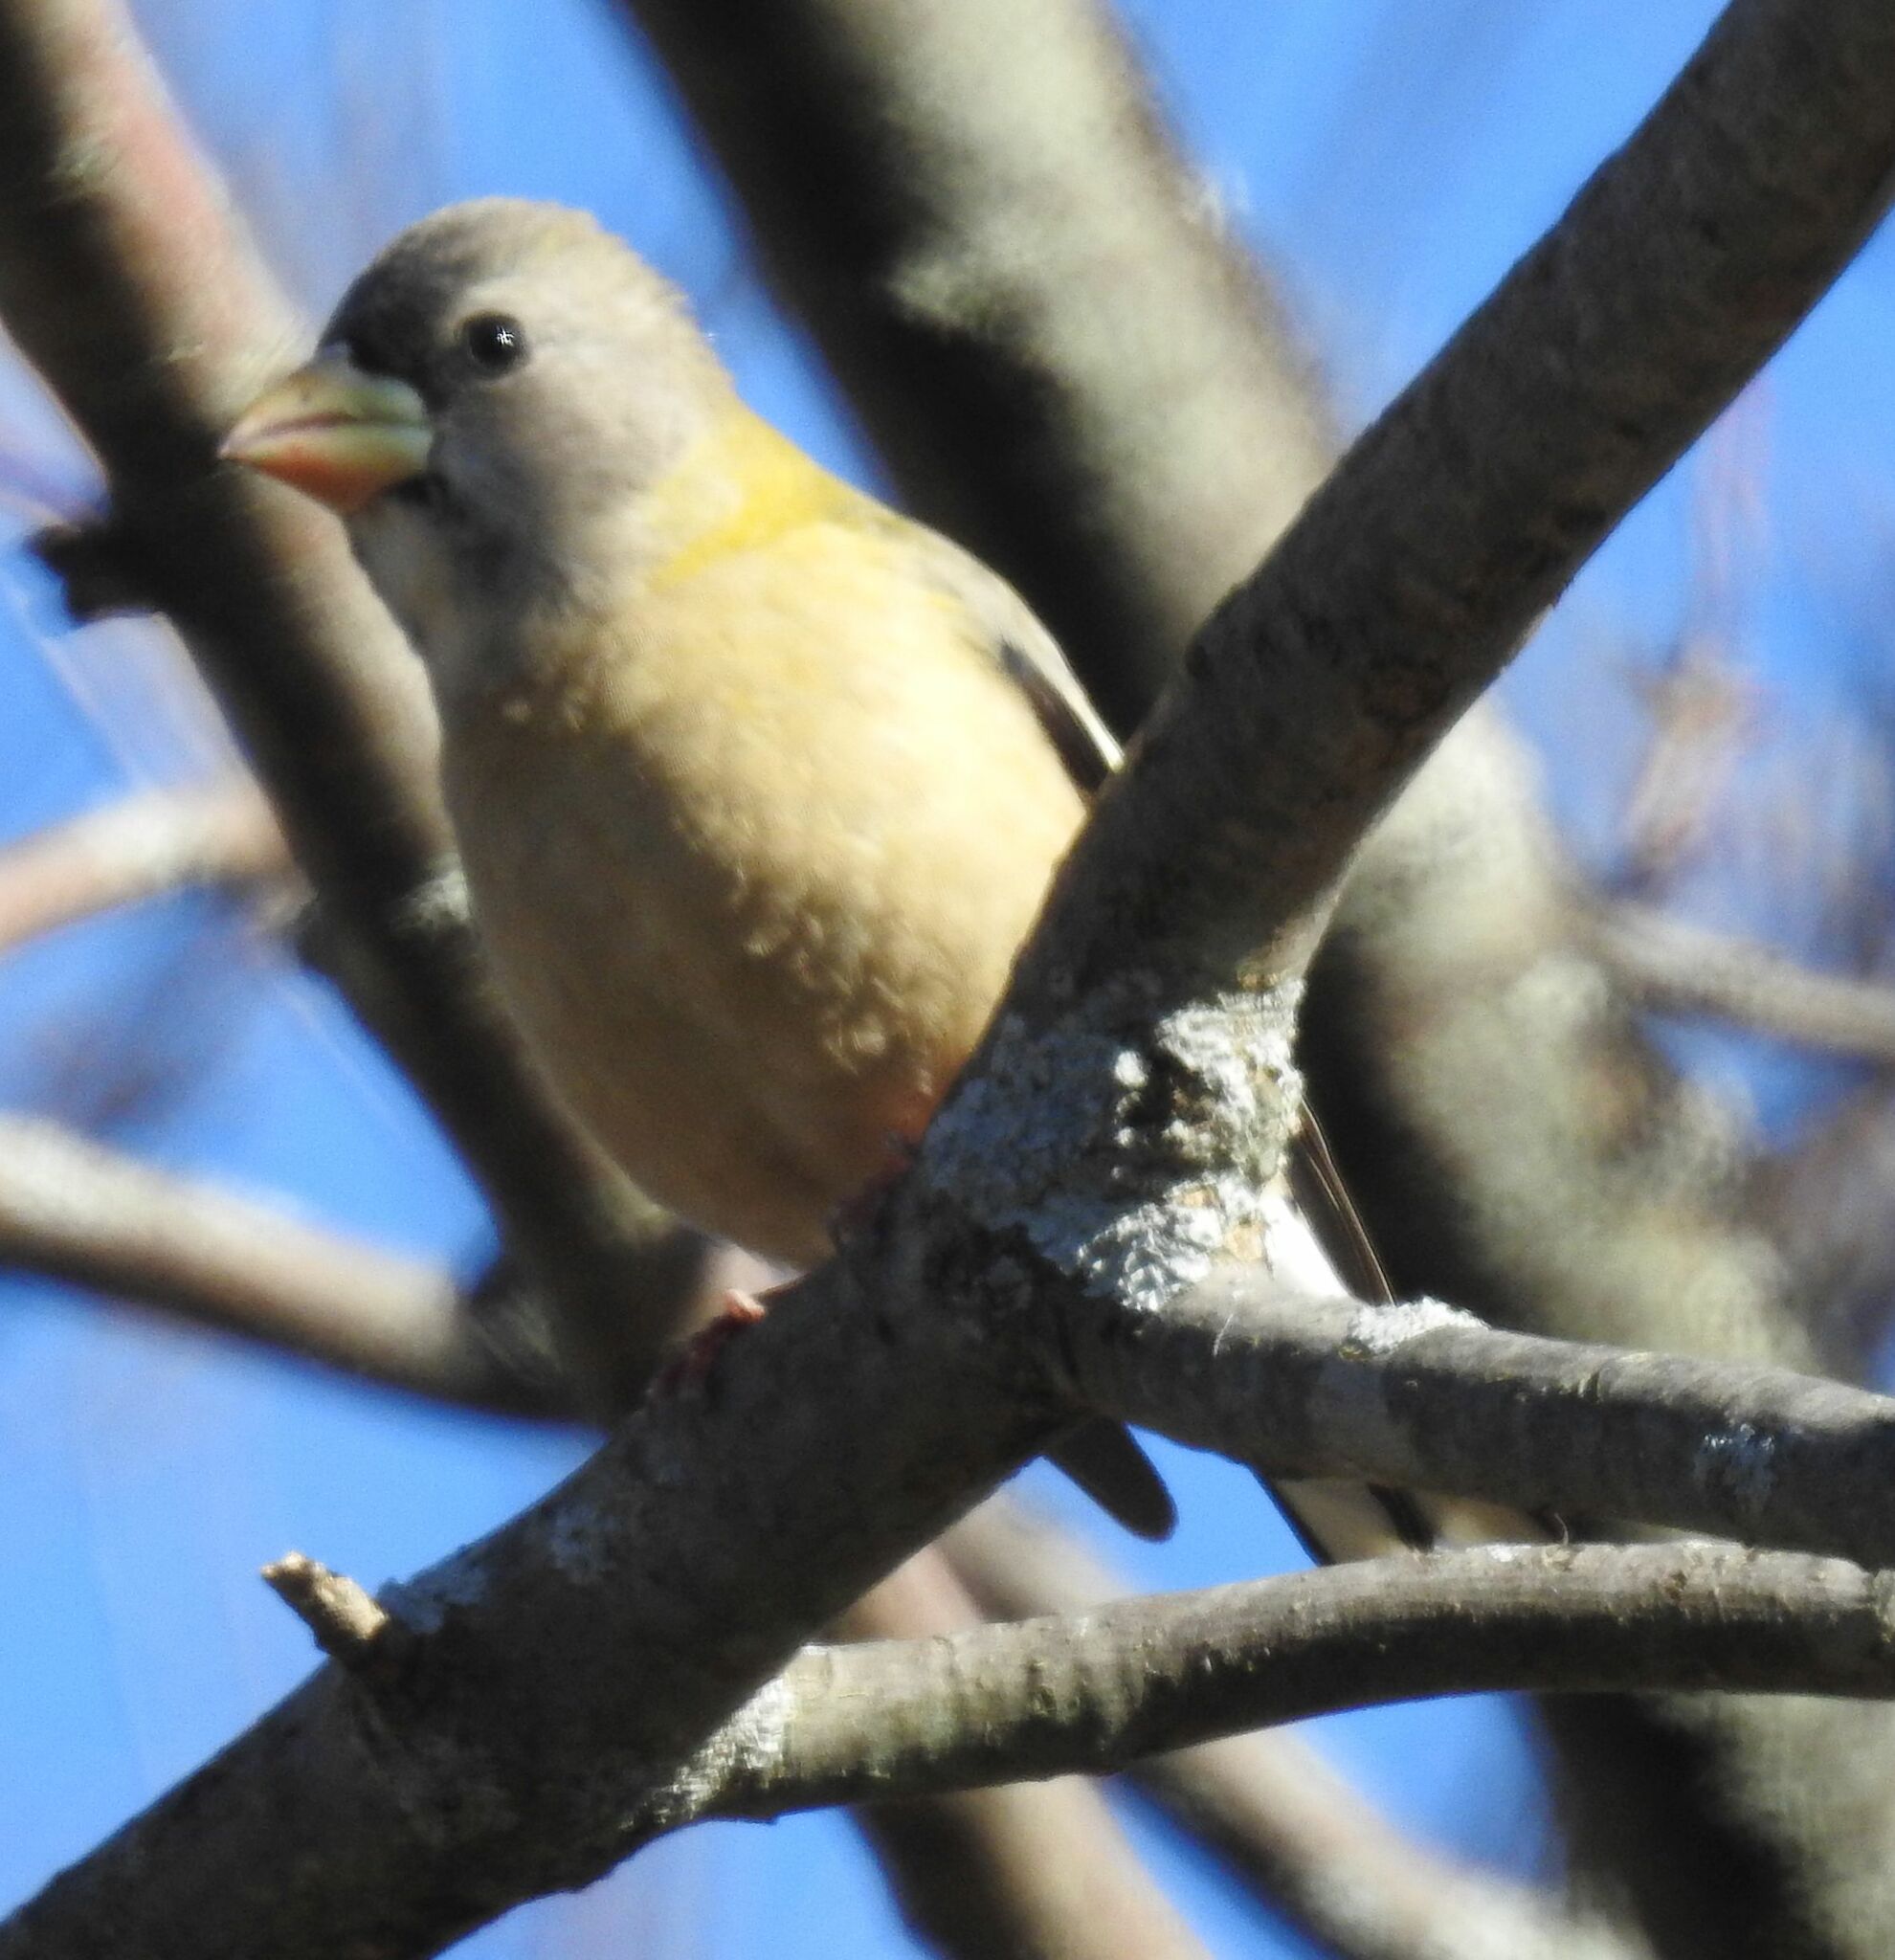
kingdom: Animalia
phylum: Chordata
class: Aves
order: Passeriformes
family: Fringillidae
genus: Hesperiphona
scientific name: Hesperiphona vespertina
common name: Evening grosbeak
